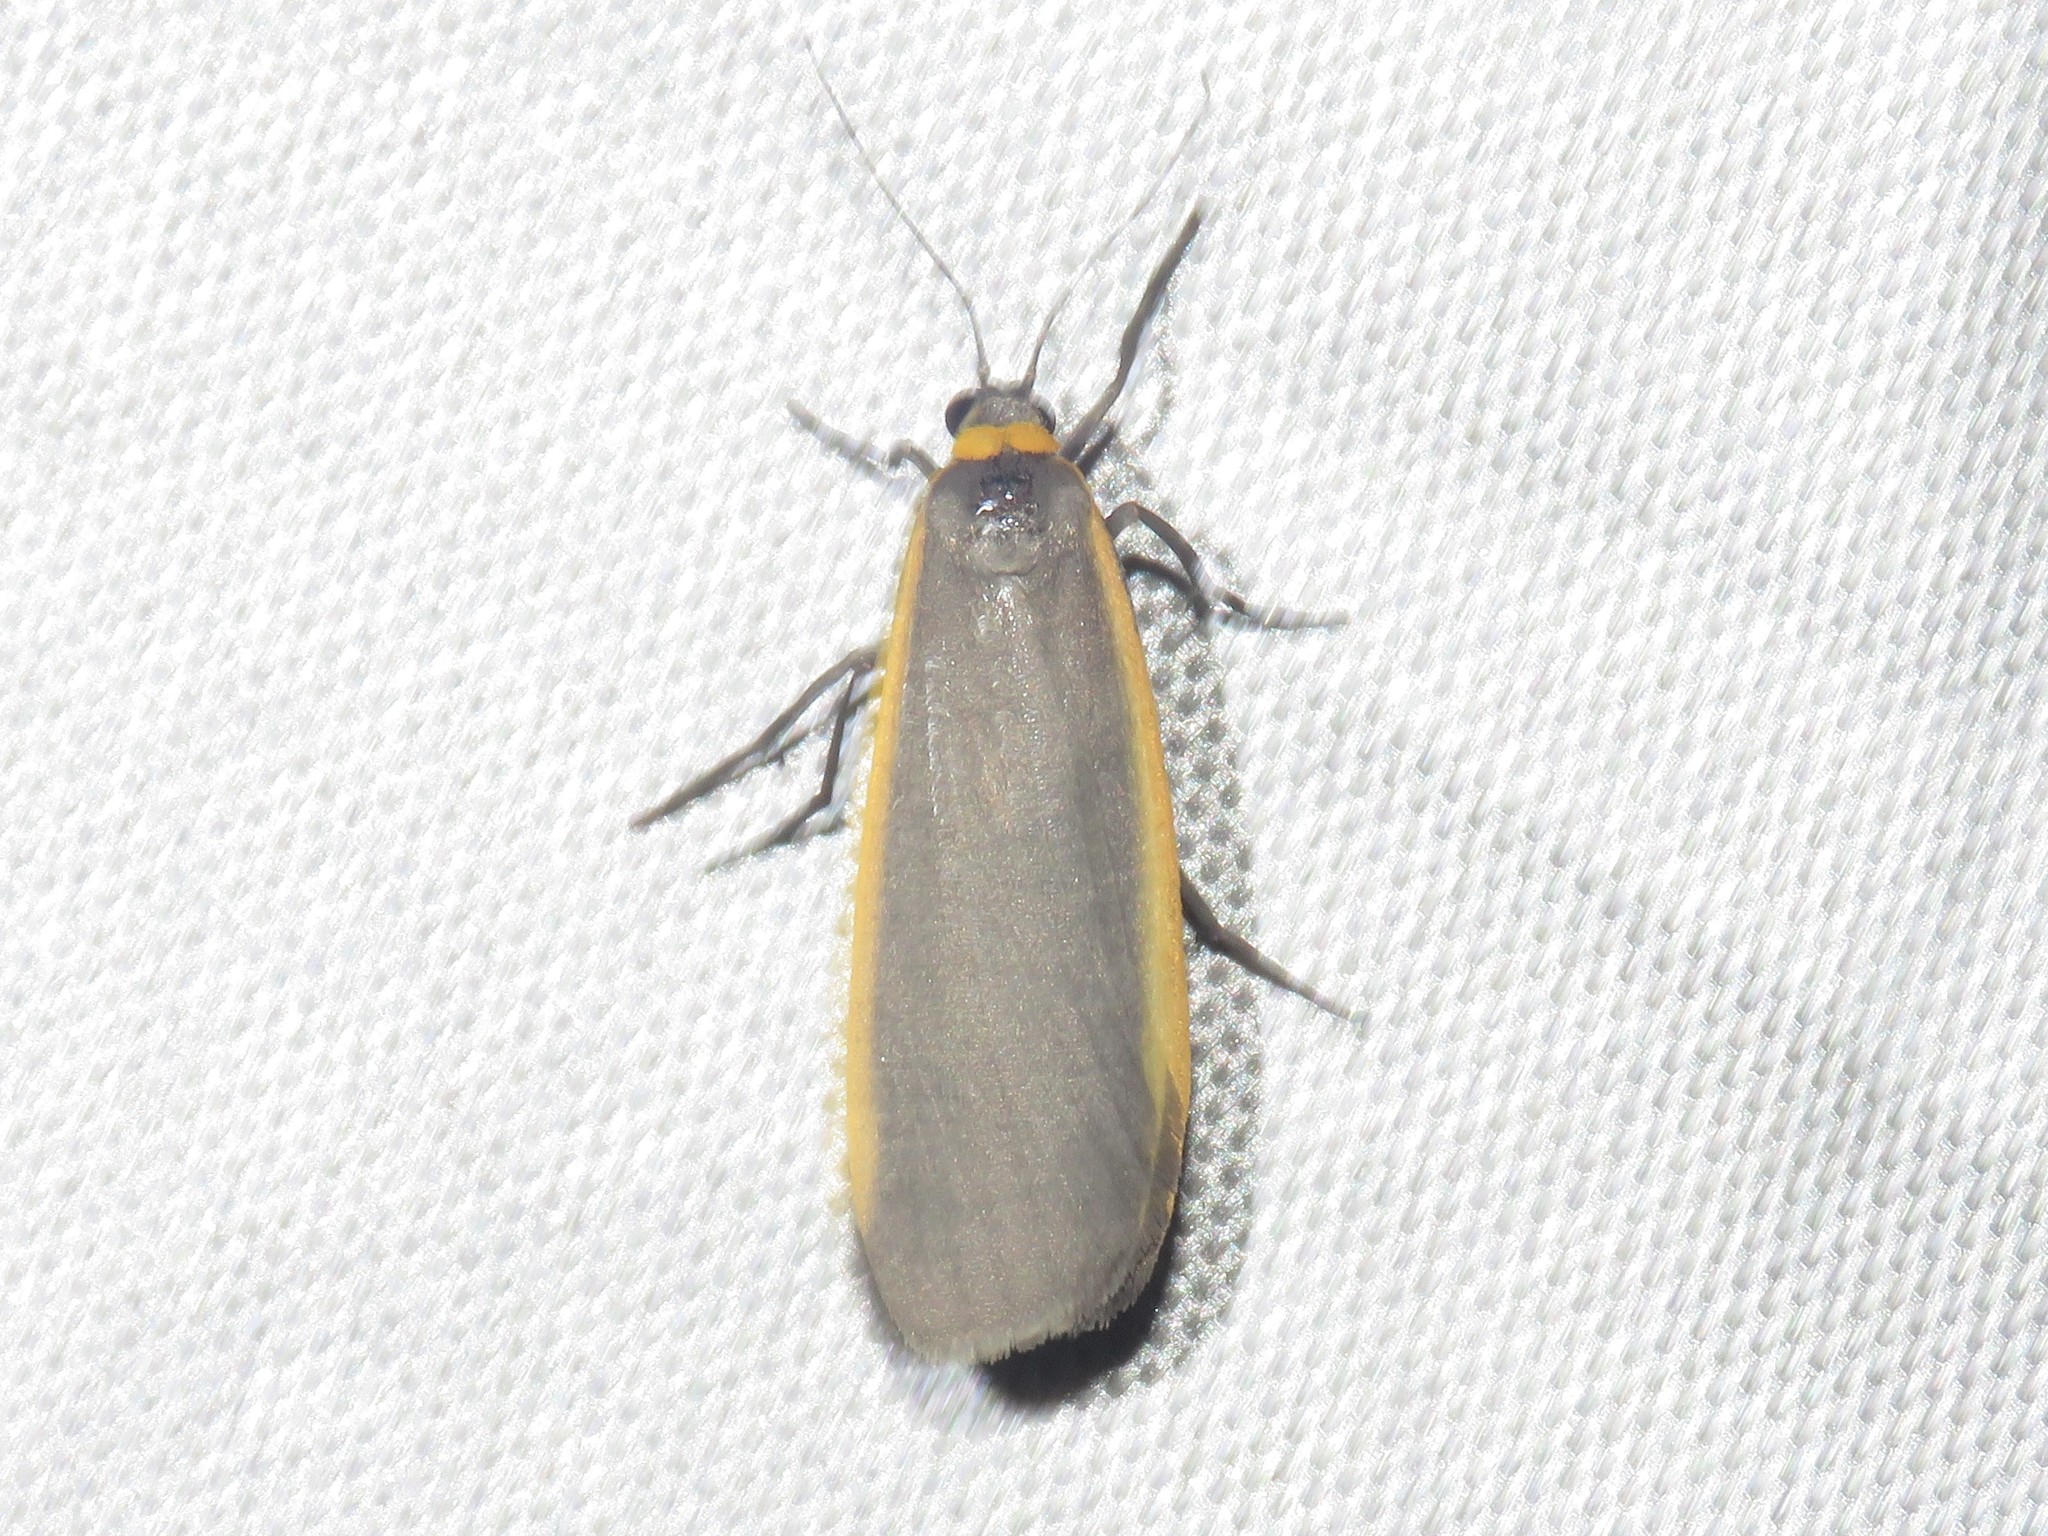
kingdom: Animalia
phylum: Arthropoda
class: Insecta
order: Lepidoptera
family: Erebidae
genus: Manulea
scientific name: Manulea bicolor
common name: Bicolored moth
